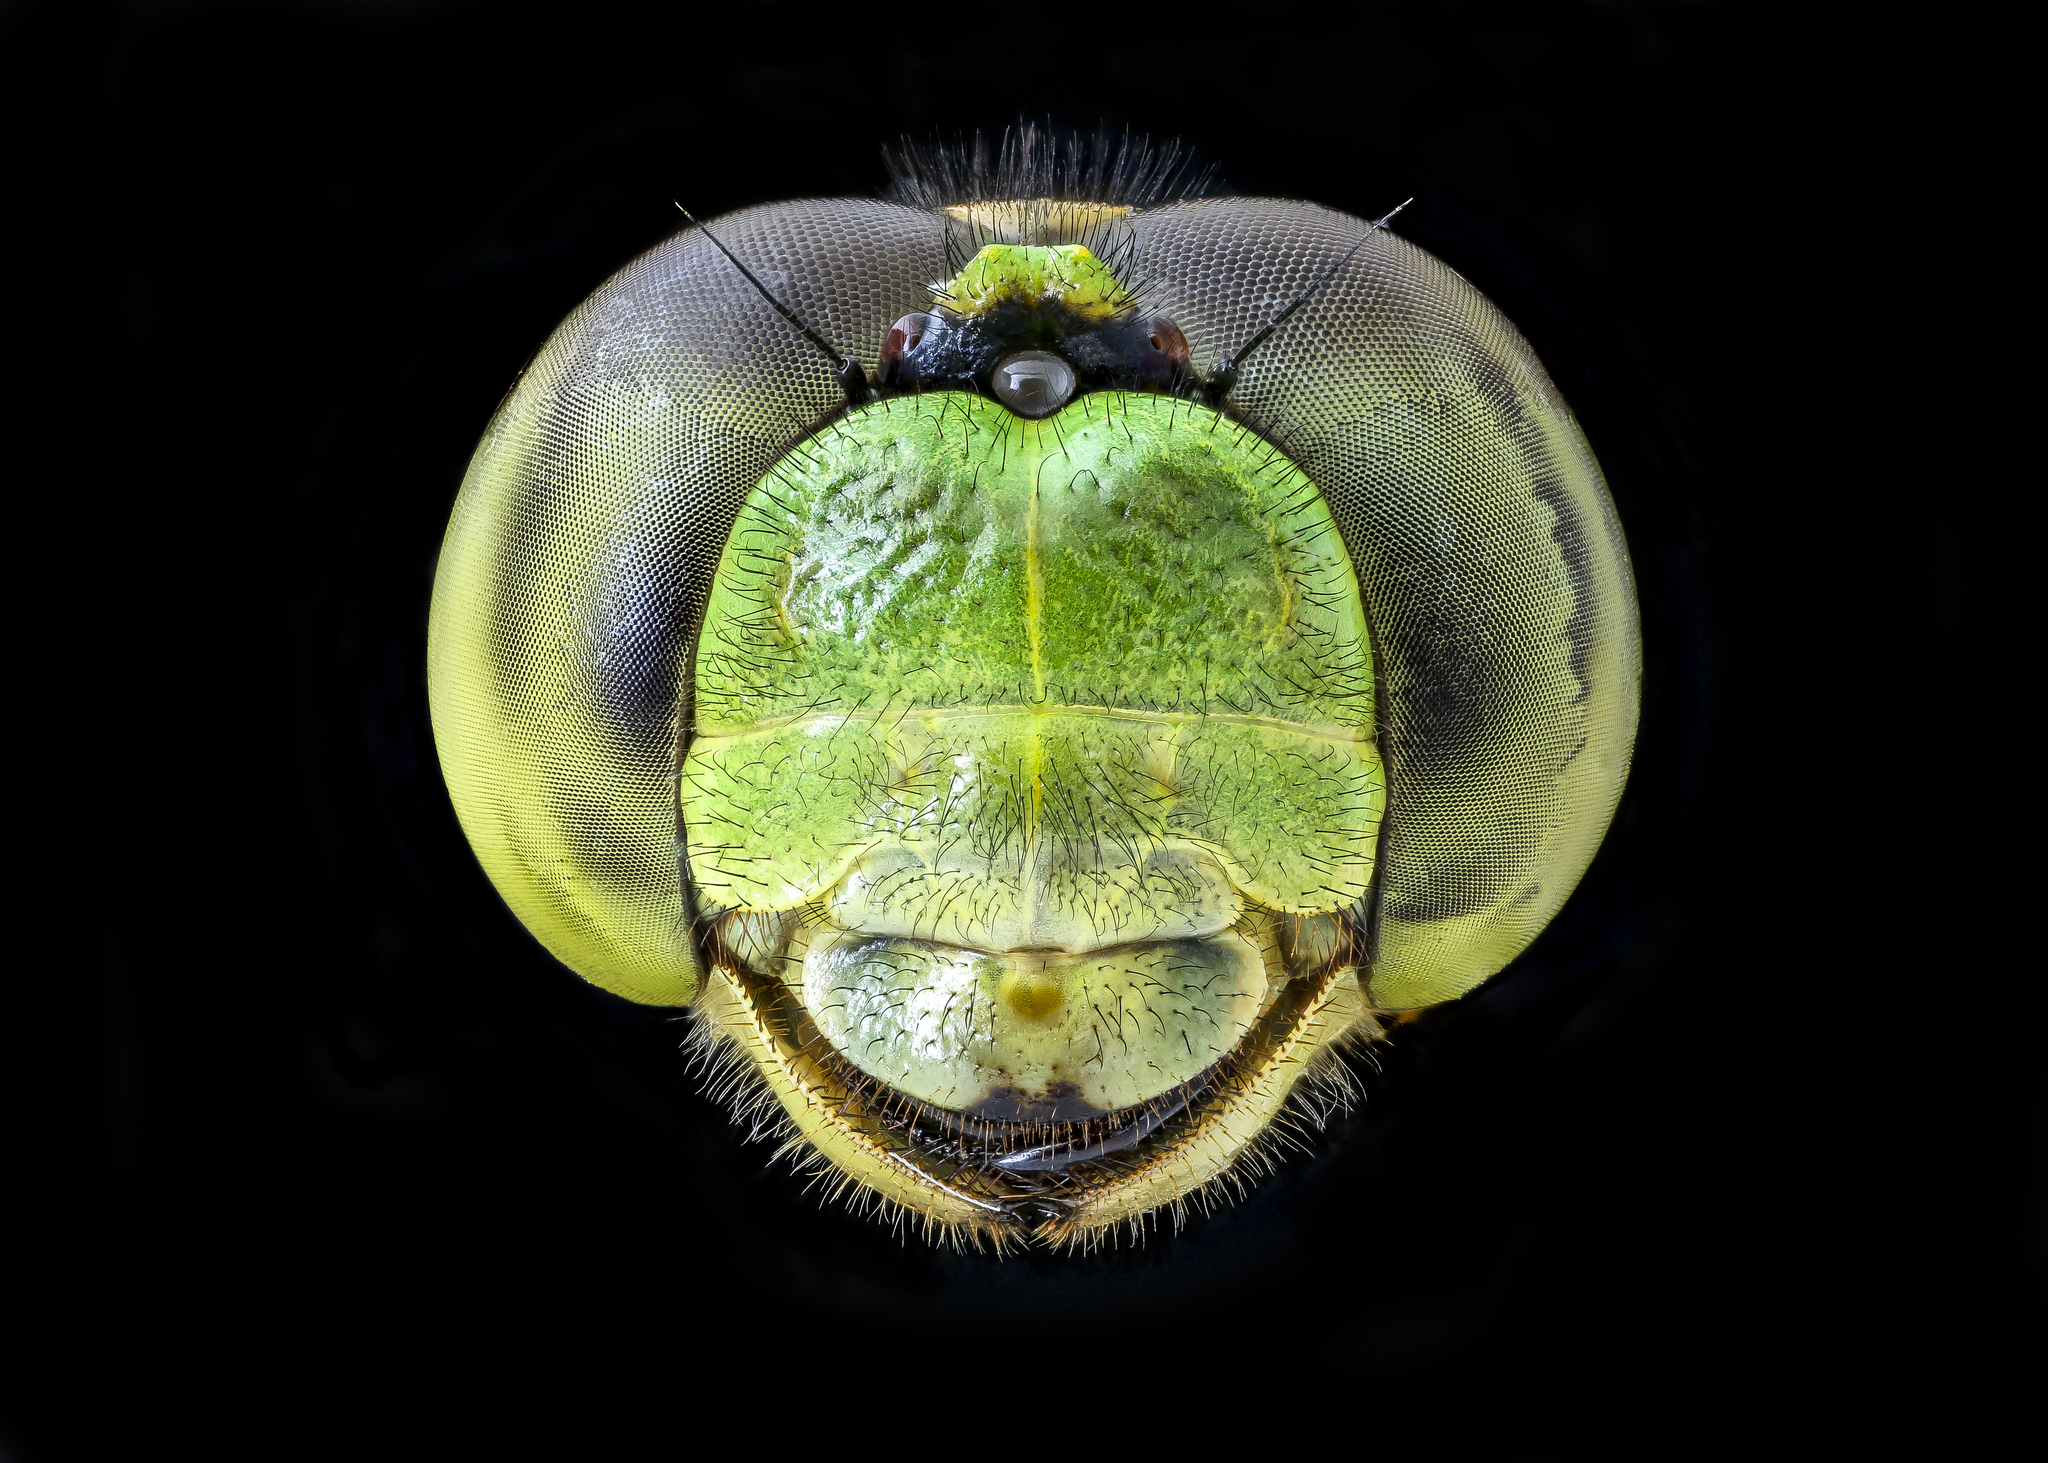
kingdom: Animalia
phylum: Arthropoda
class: Insecta
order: Odonata
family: Libellulidae
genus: Erythemis
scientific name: Erythemis simplicicollis
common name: Eastern pondhawk
